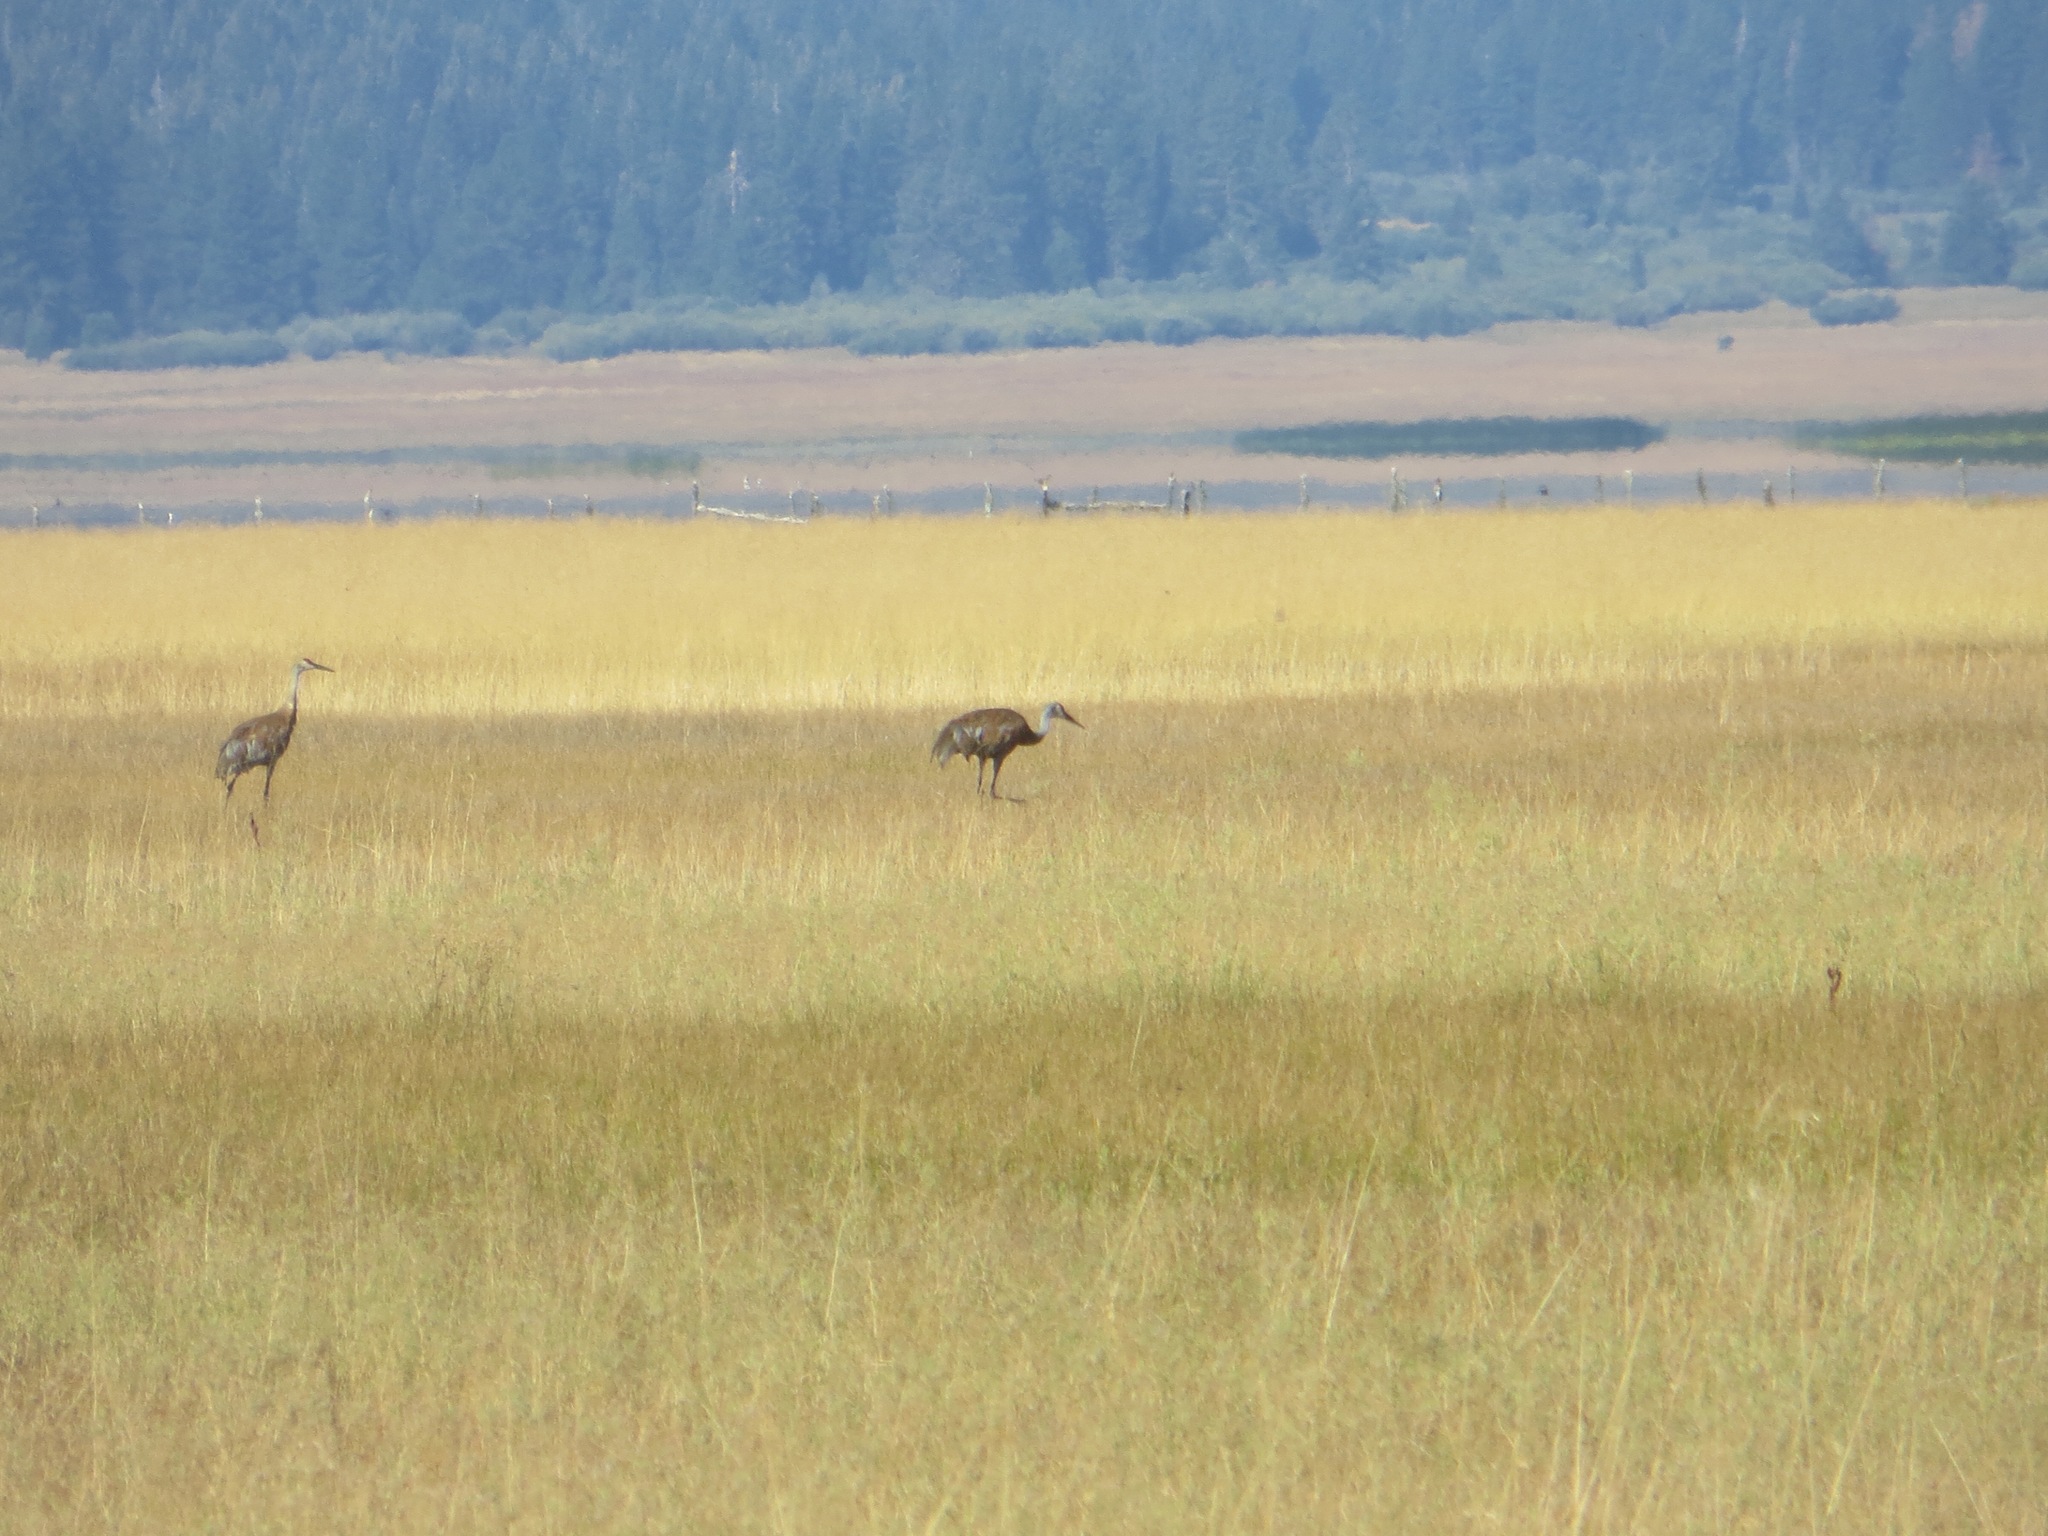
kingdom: Animalia
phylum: Chordata
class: Aves
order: Gruiformes
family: Gruidae
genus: Grus
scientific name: Grus canadensis
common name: Sandhill crane
